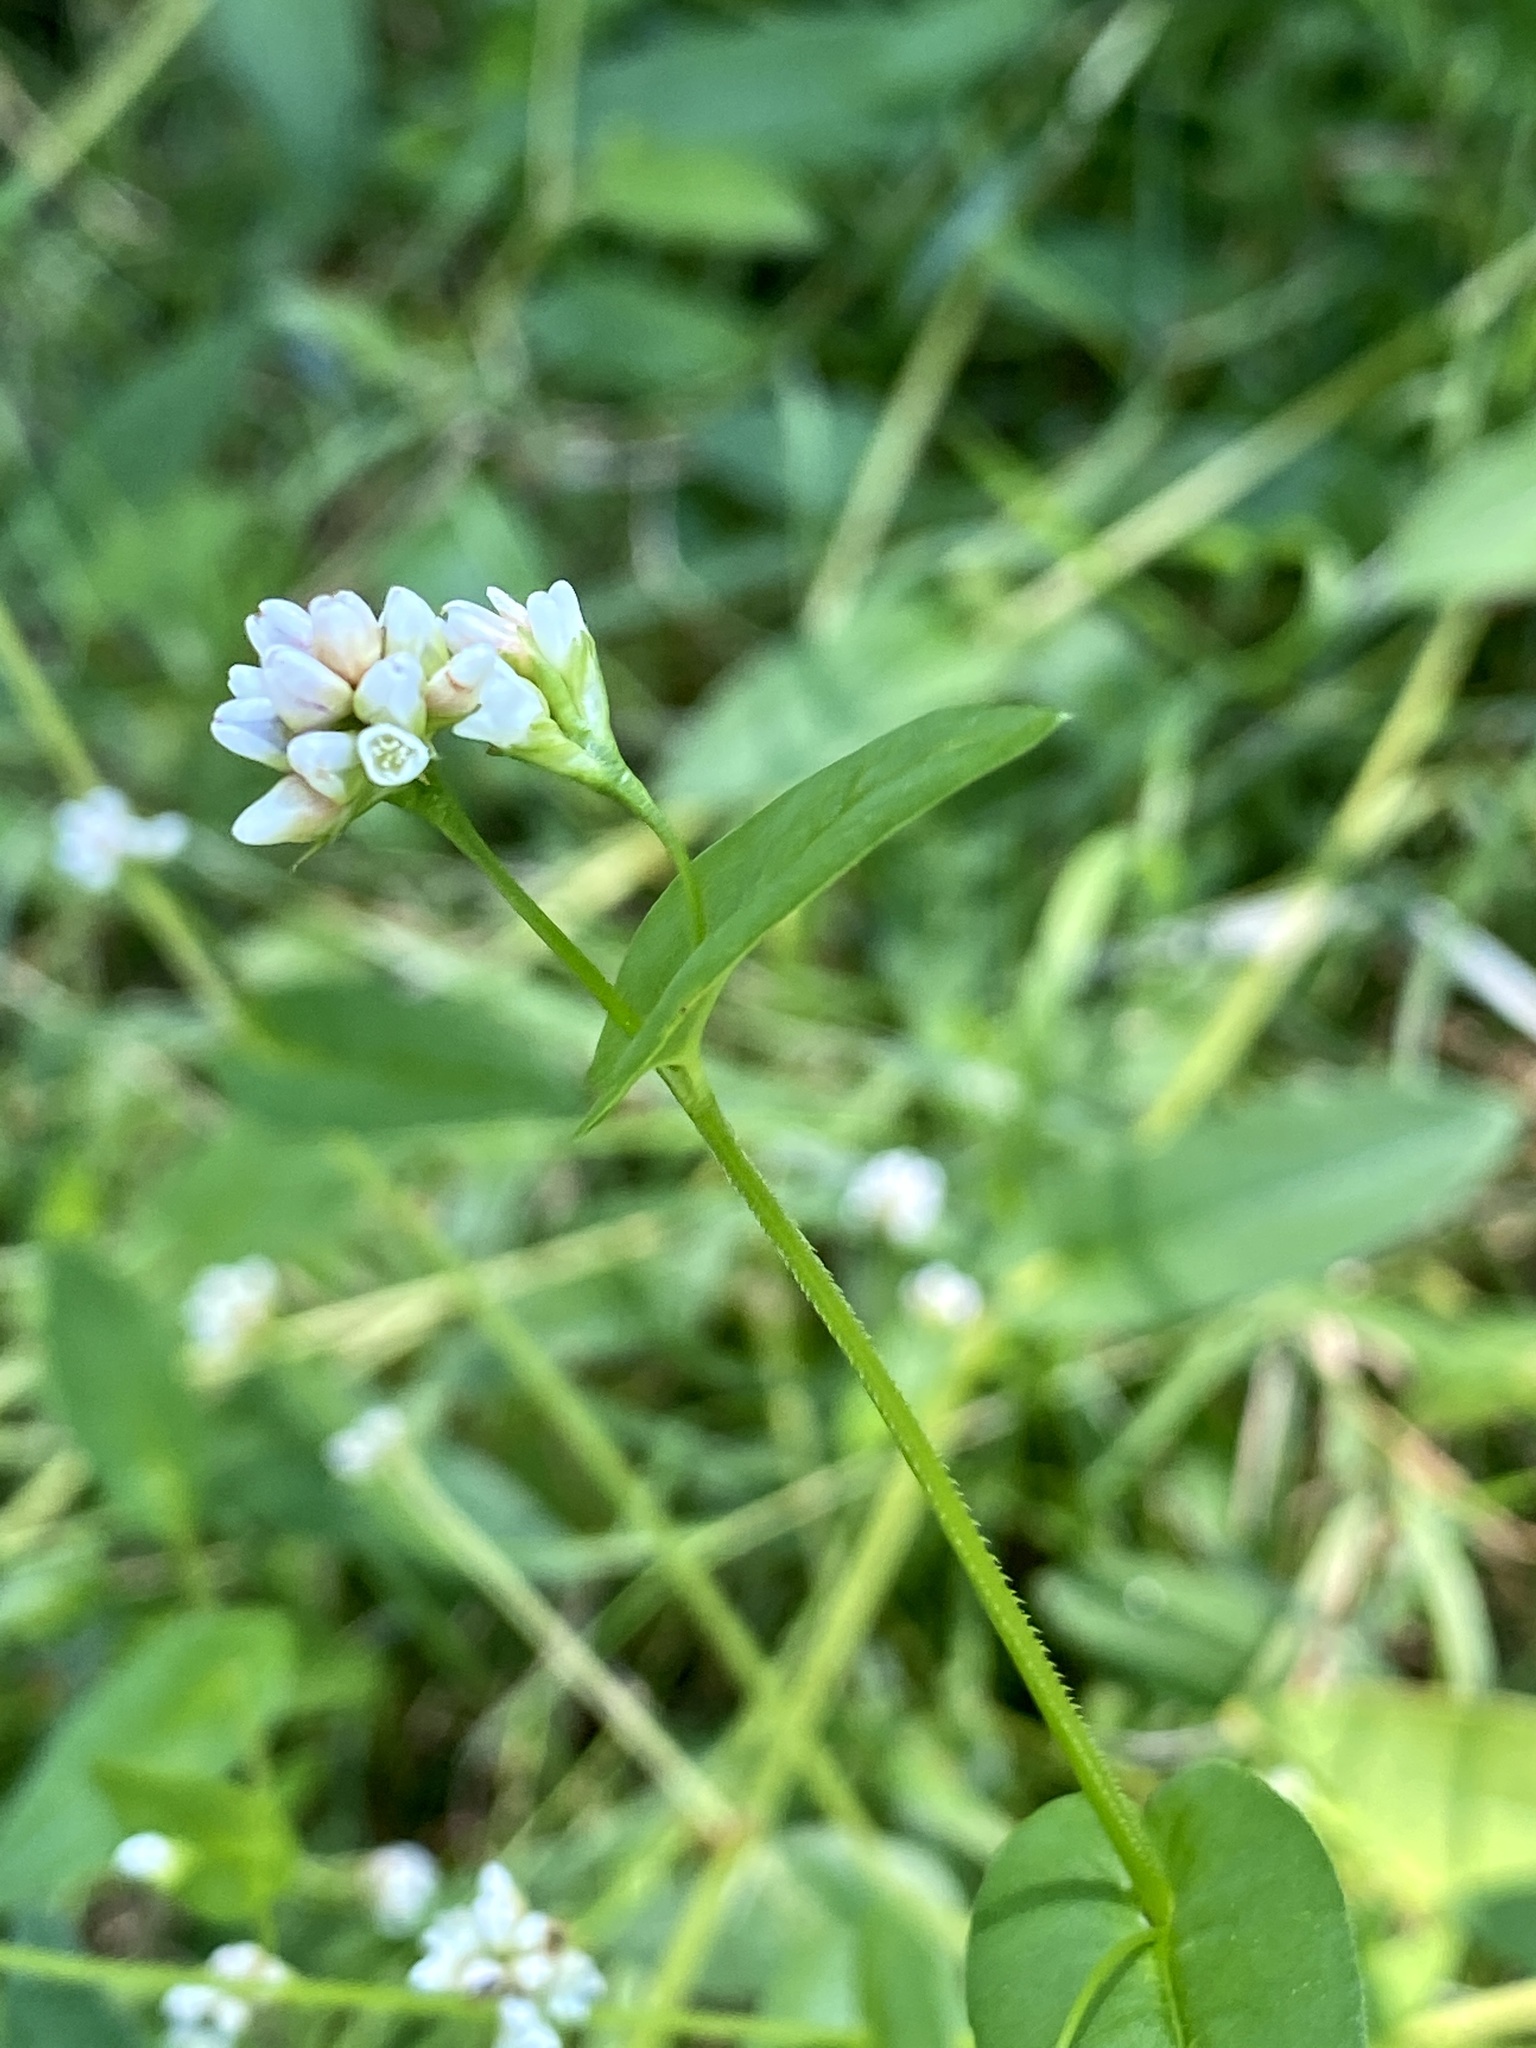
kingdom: Plantae
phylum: Tracheophyta
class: Magnoliopsida
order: Caryophyllales
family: Polygonaceae
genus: Persicaria
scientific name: Persicaria sagittata
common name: American tearthumb
